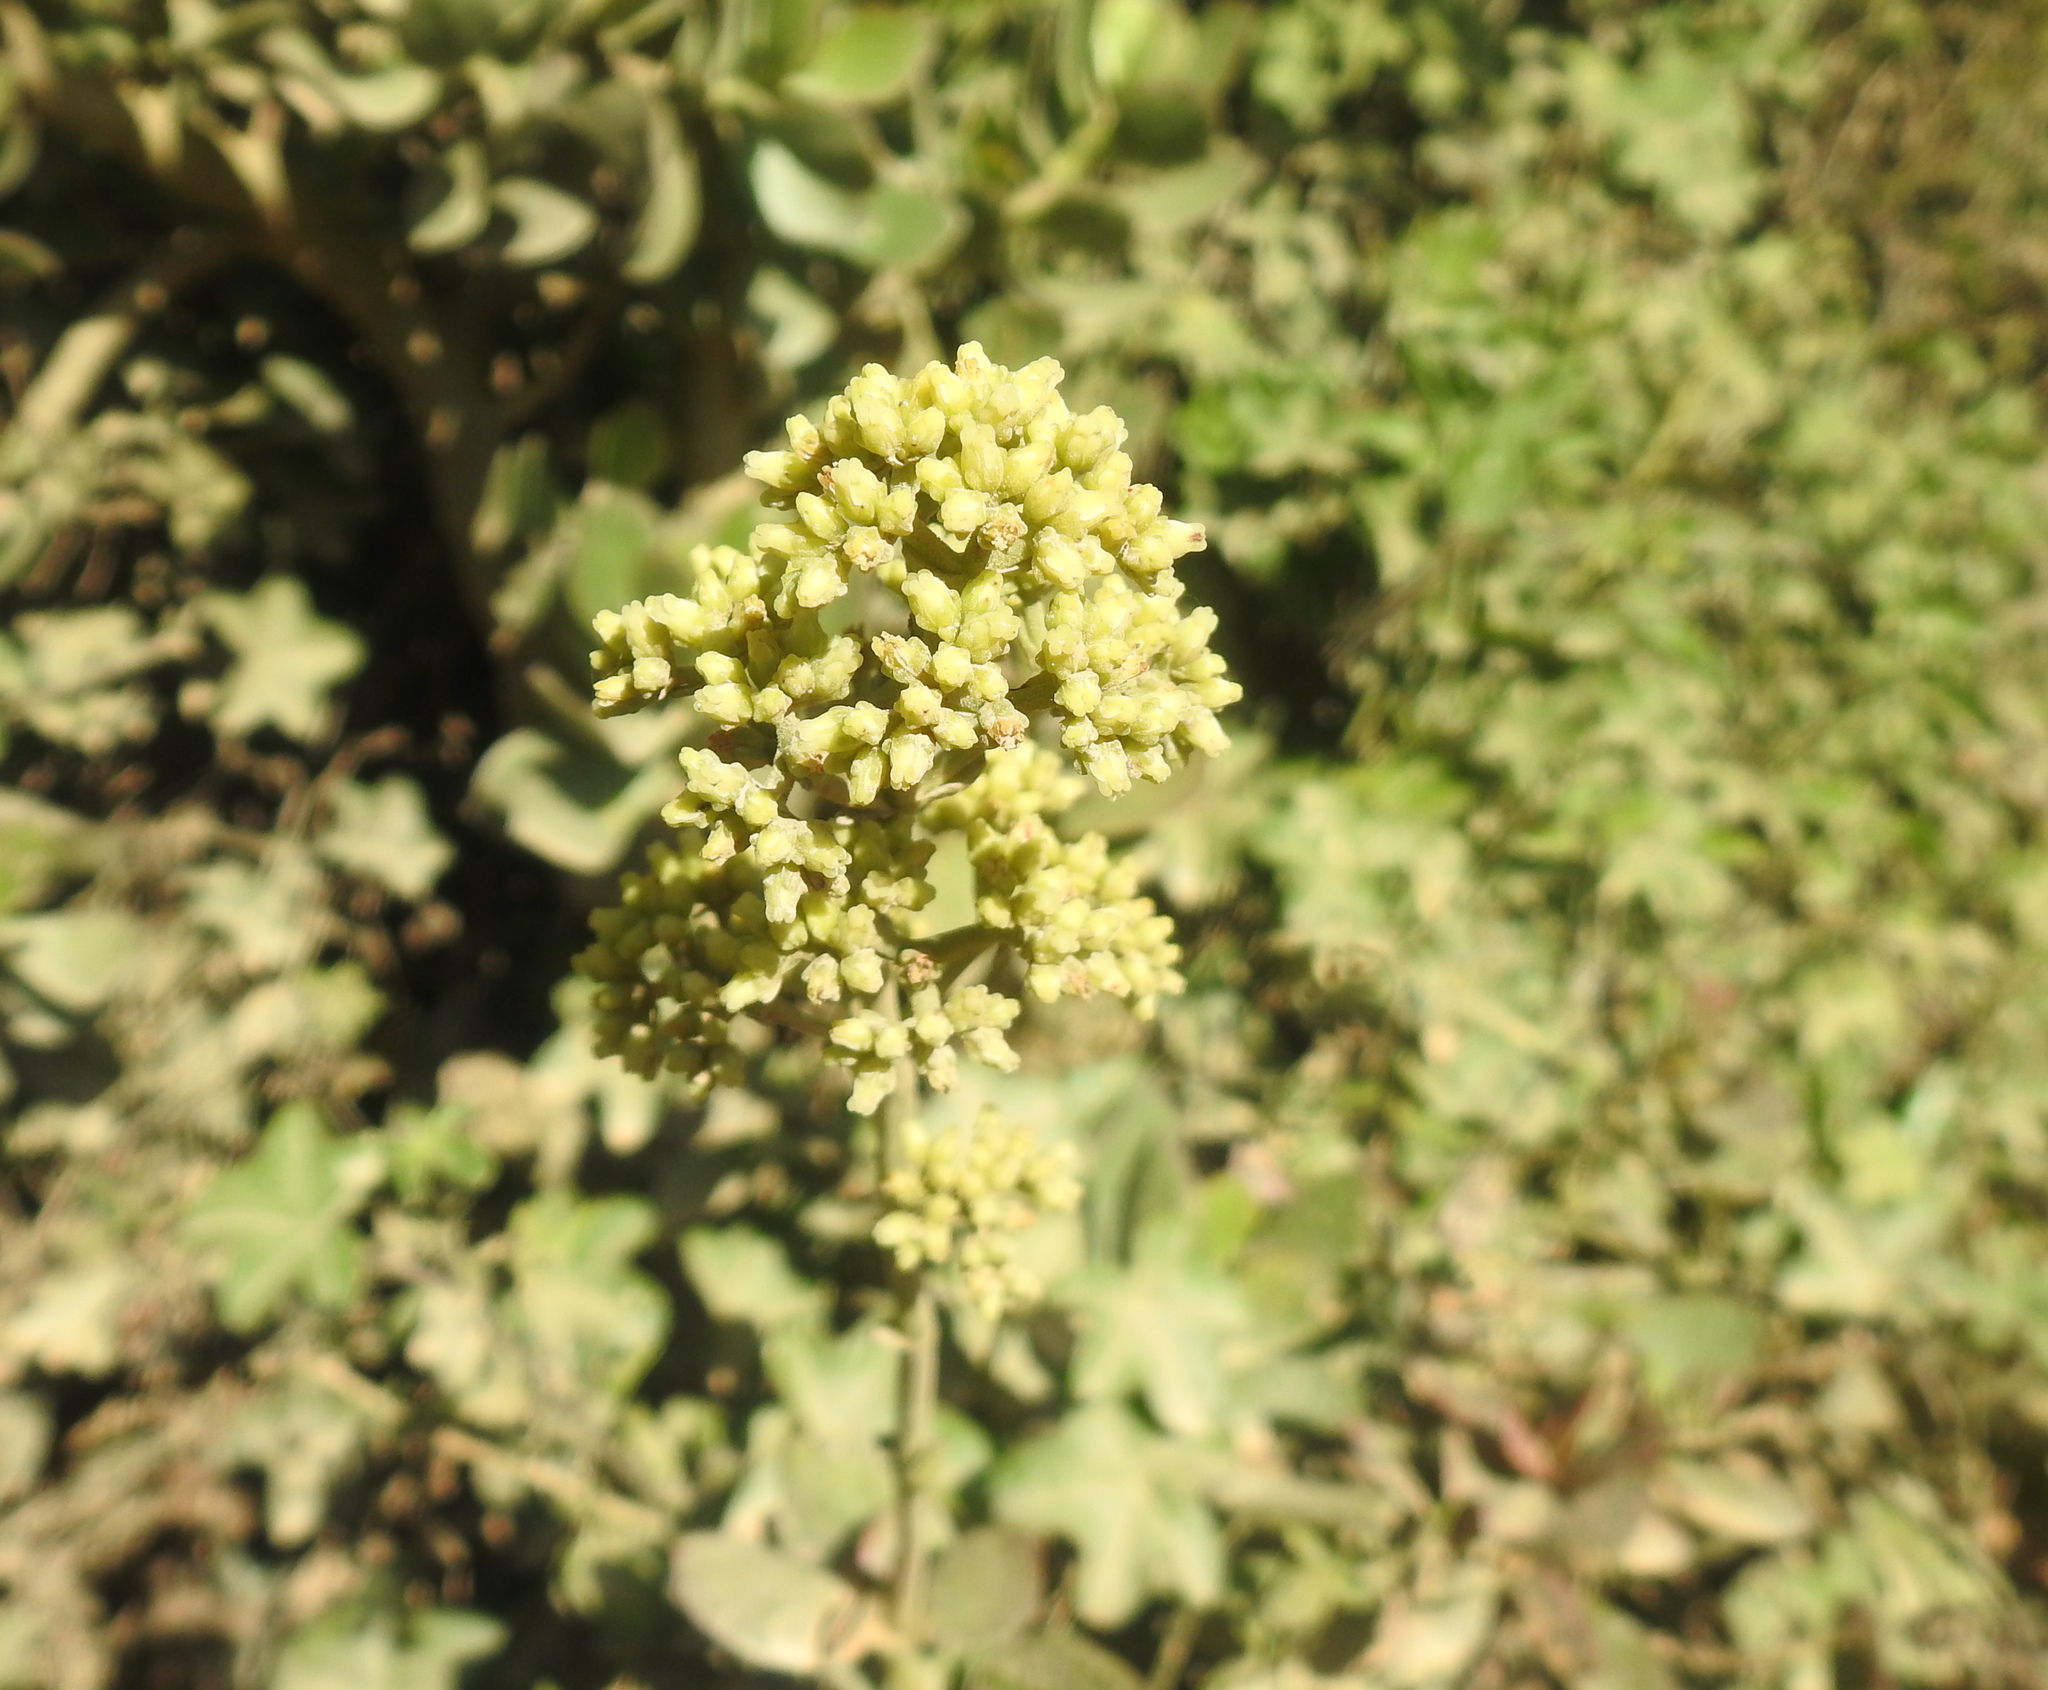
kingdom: Plantae
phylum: Tracheophyta
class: Magnoliopsida
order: Saxifragales
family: Crassulaceae
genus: Crassula
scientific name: Crassula cultrata
